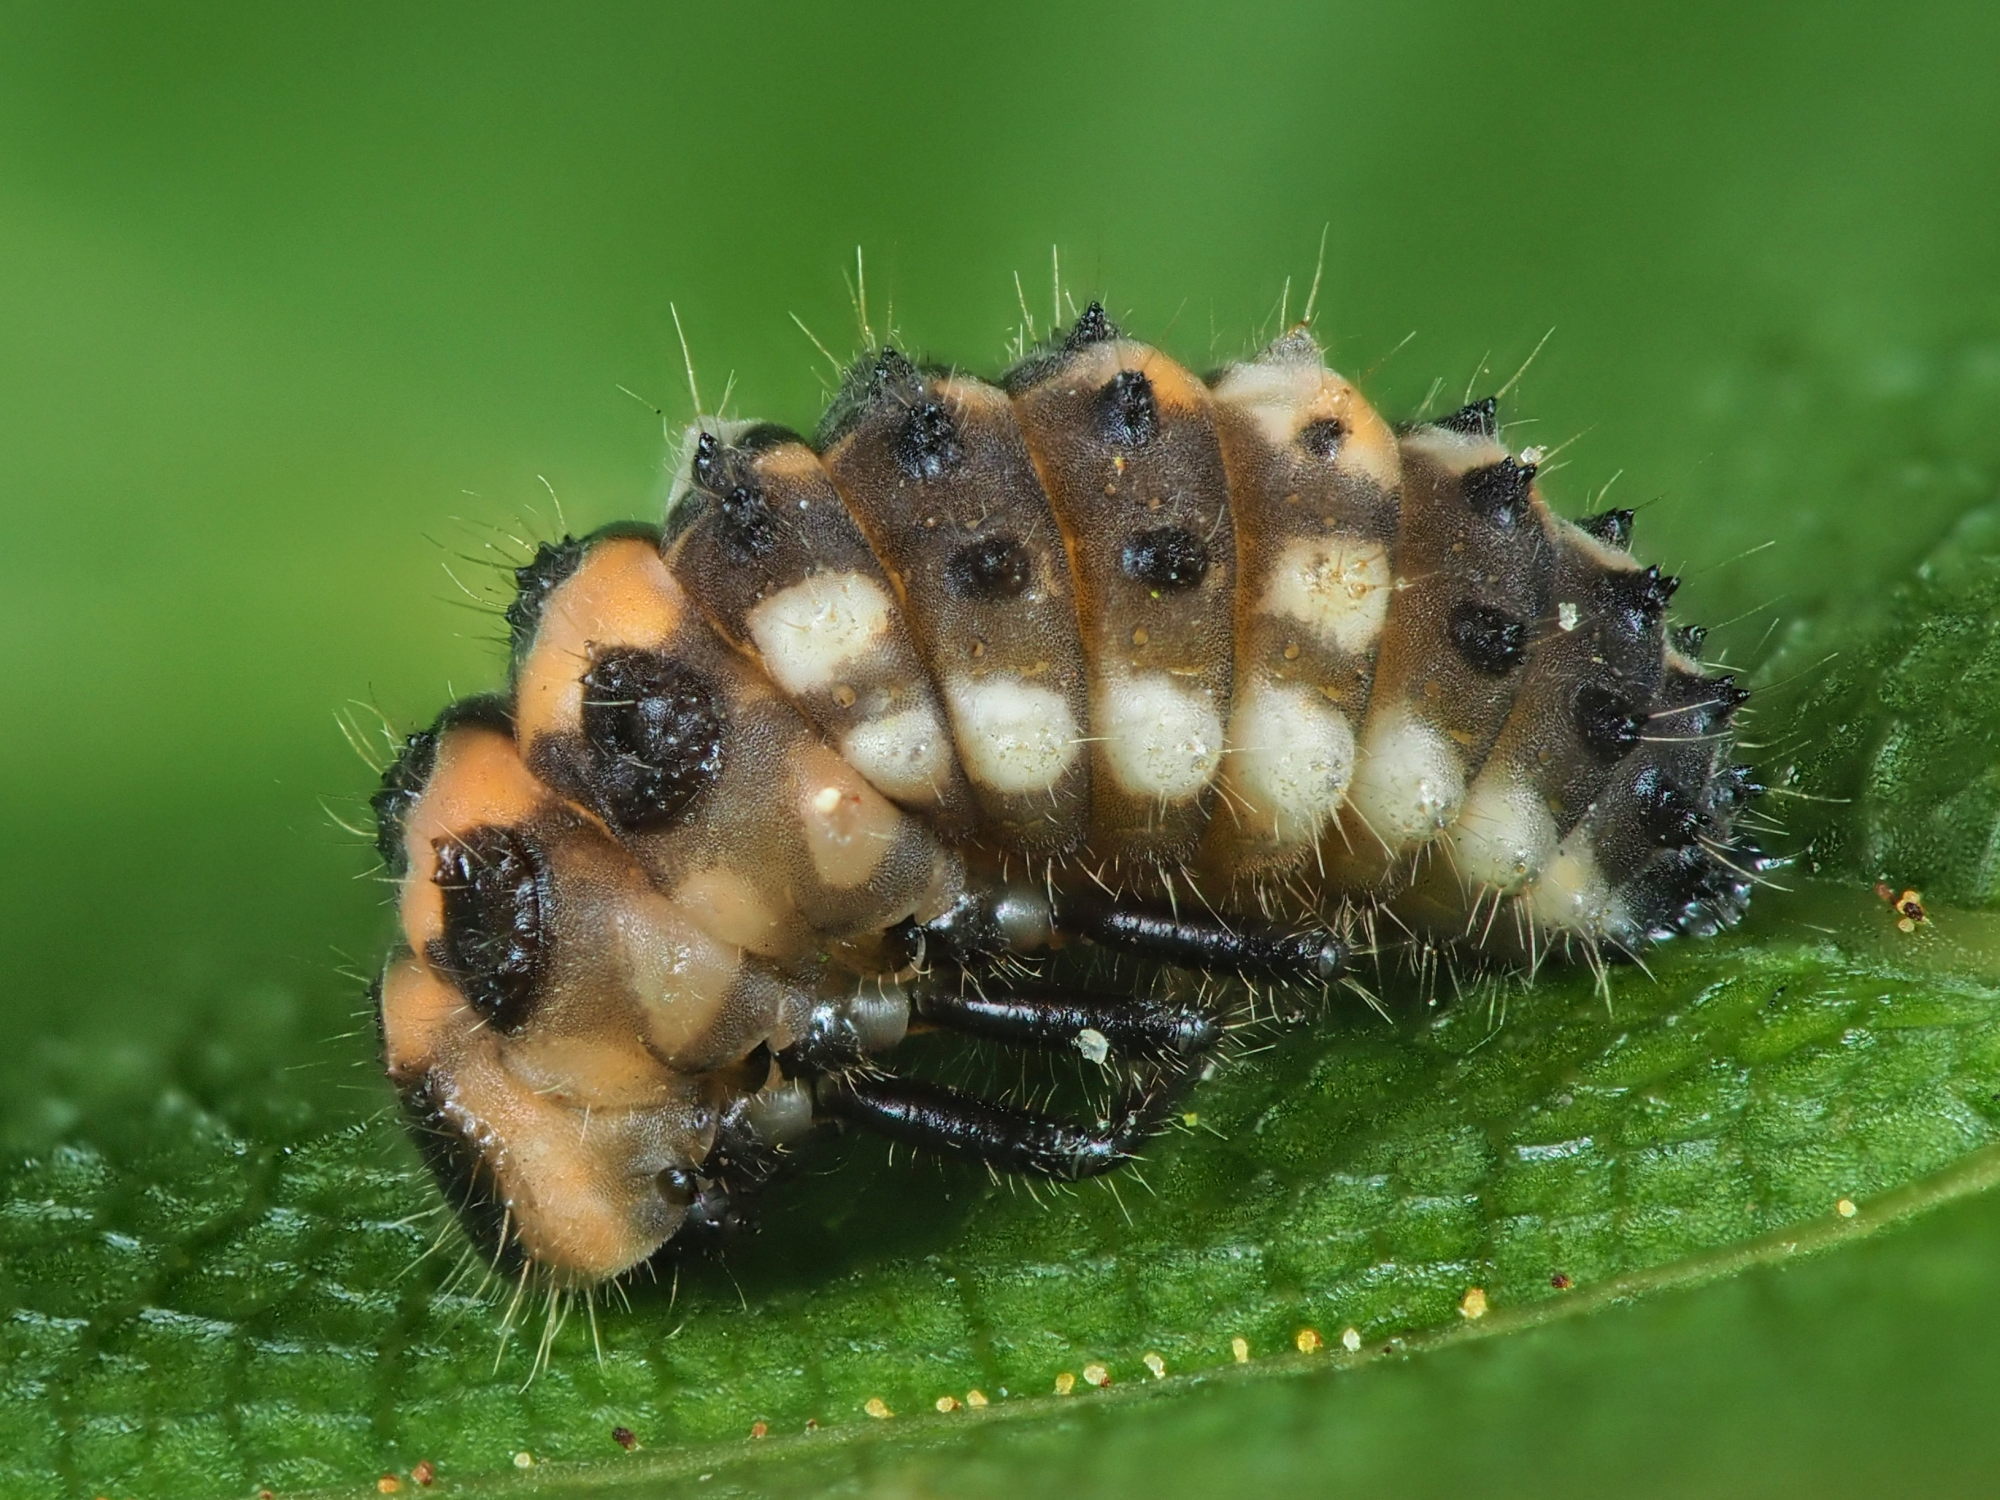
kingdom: Animalia
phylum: Arthropoda
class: Insecta
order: Coleoptera
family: Coccinellidae
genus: Oenopia
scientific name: Oenopia conglobata
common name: Ladybird beetle
